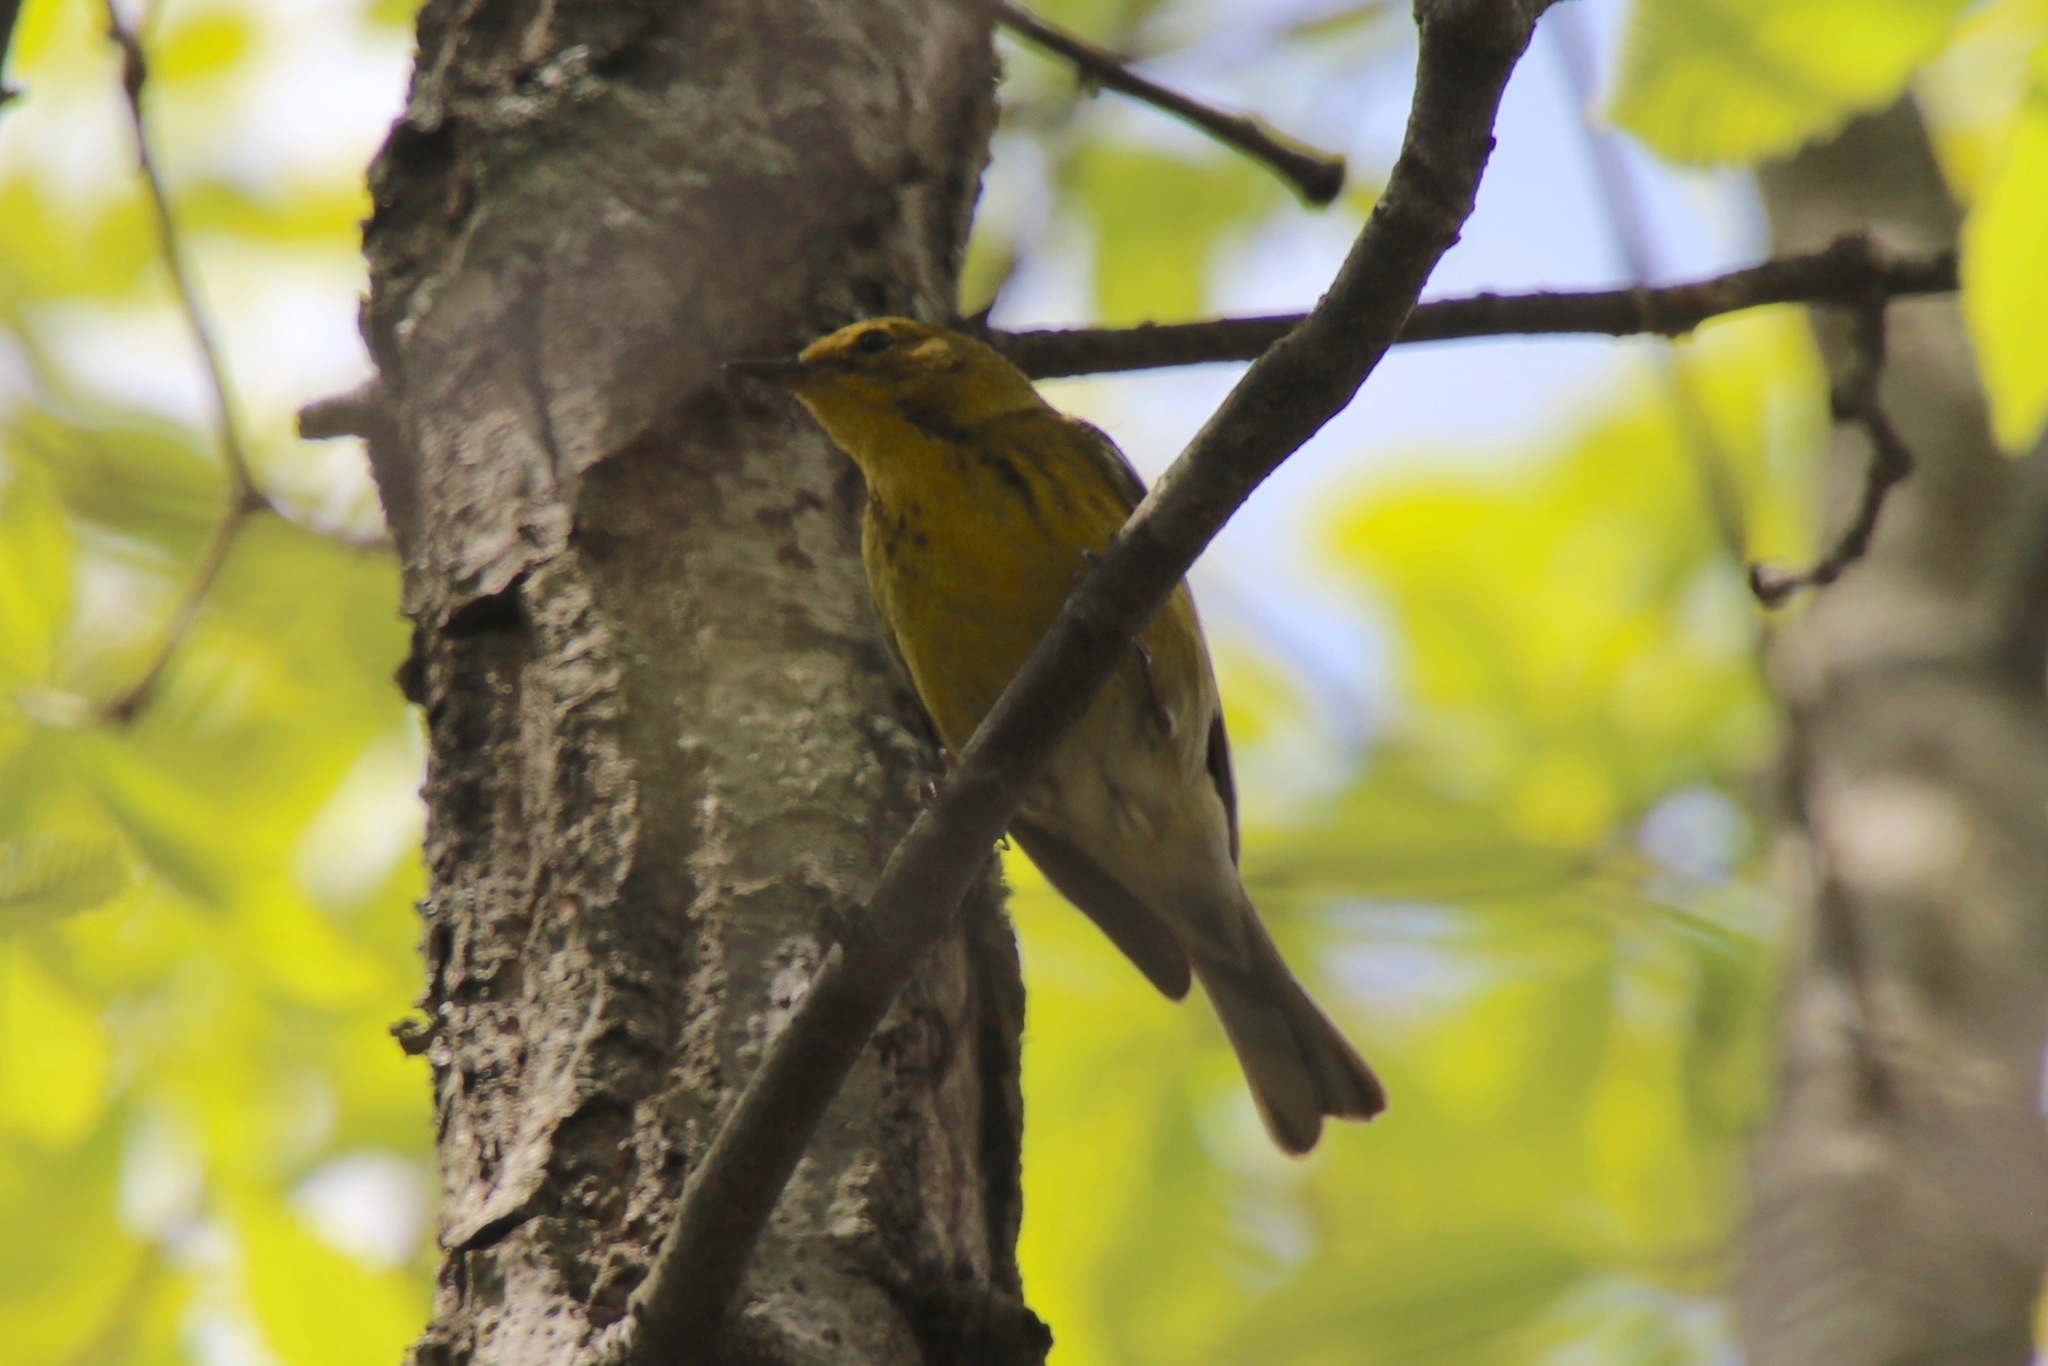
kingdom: Animalia
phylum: Chordata
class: Aves
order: Passeriformes
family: Parulidae
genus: Setophaga
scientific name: Setophaga pinus
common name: Pine warbler
